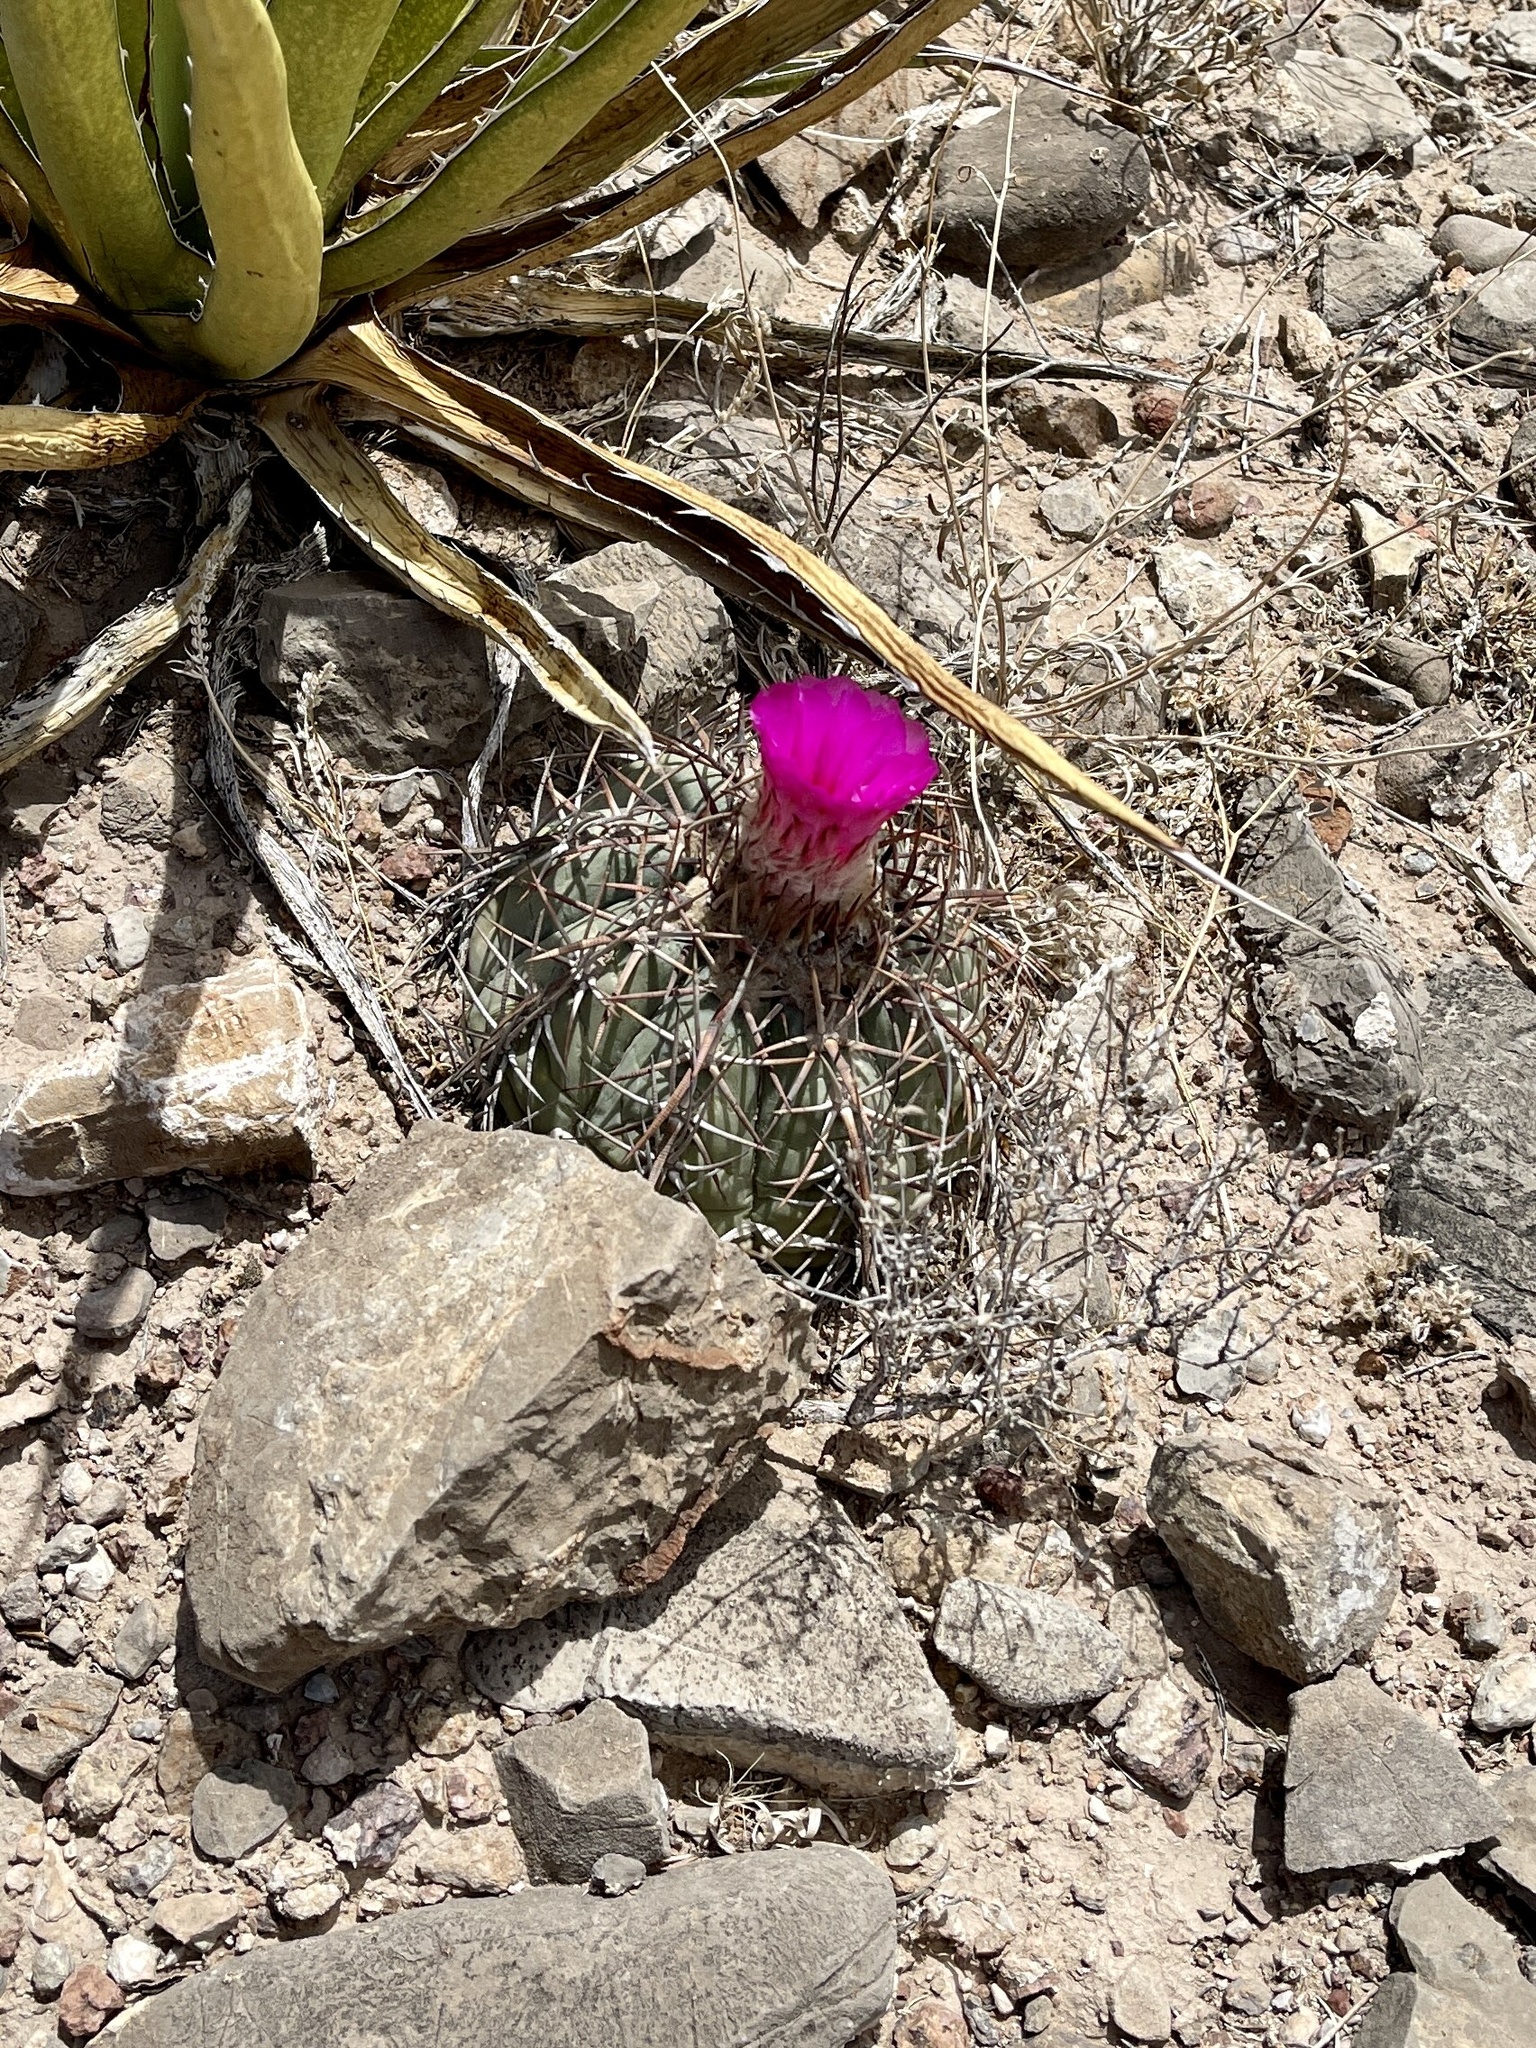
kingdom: Plantae
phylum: Tracheophyta
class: Magnoliopsida
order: Caryophyllales
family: Cactaceae
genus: Echinocactus
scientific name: Echinocactus horizonthalonius
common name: Devilshead
